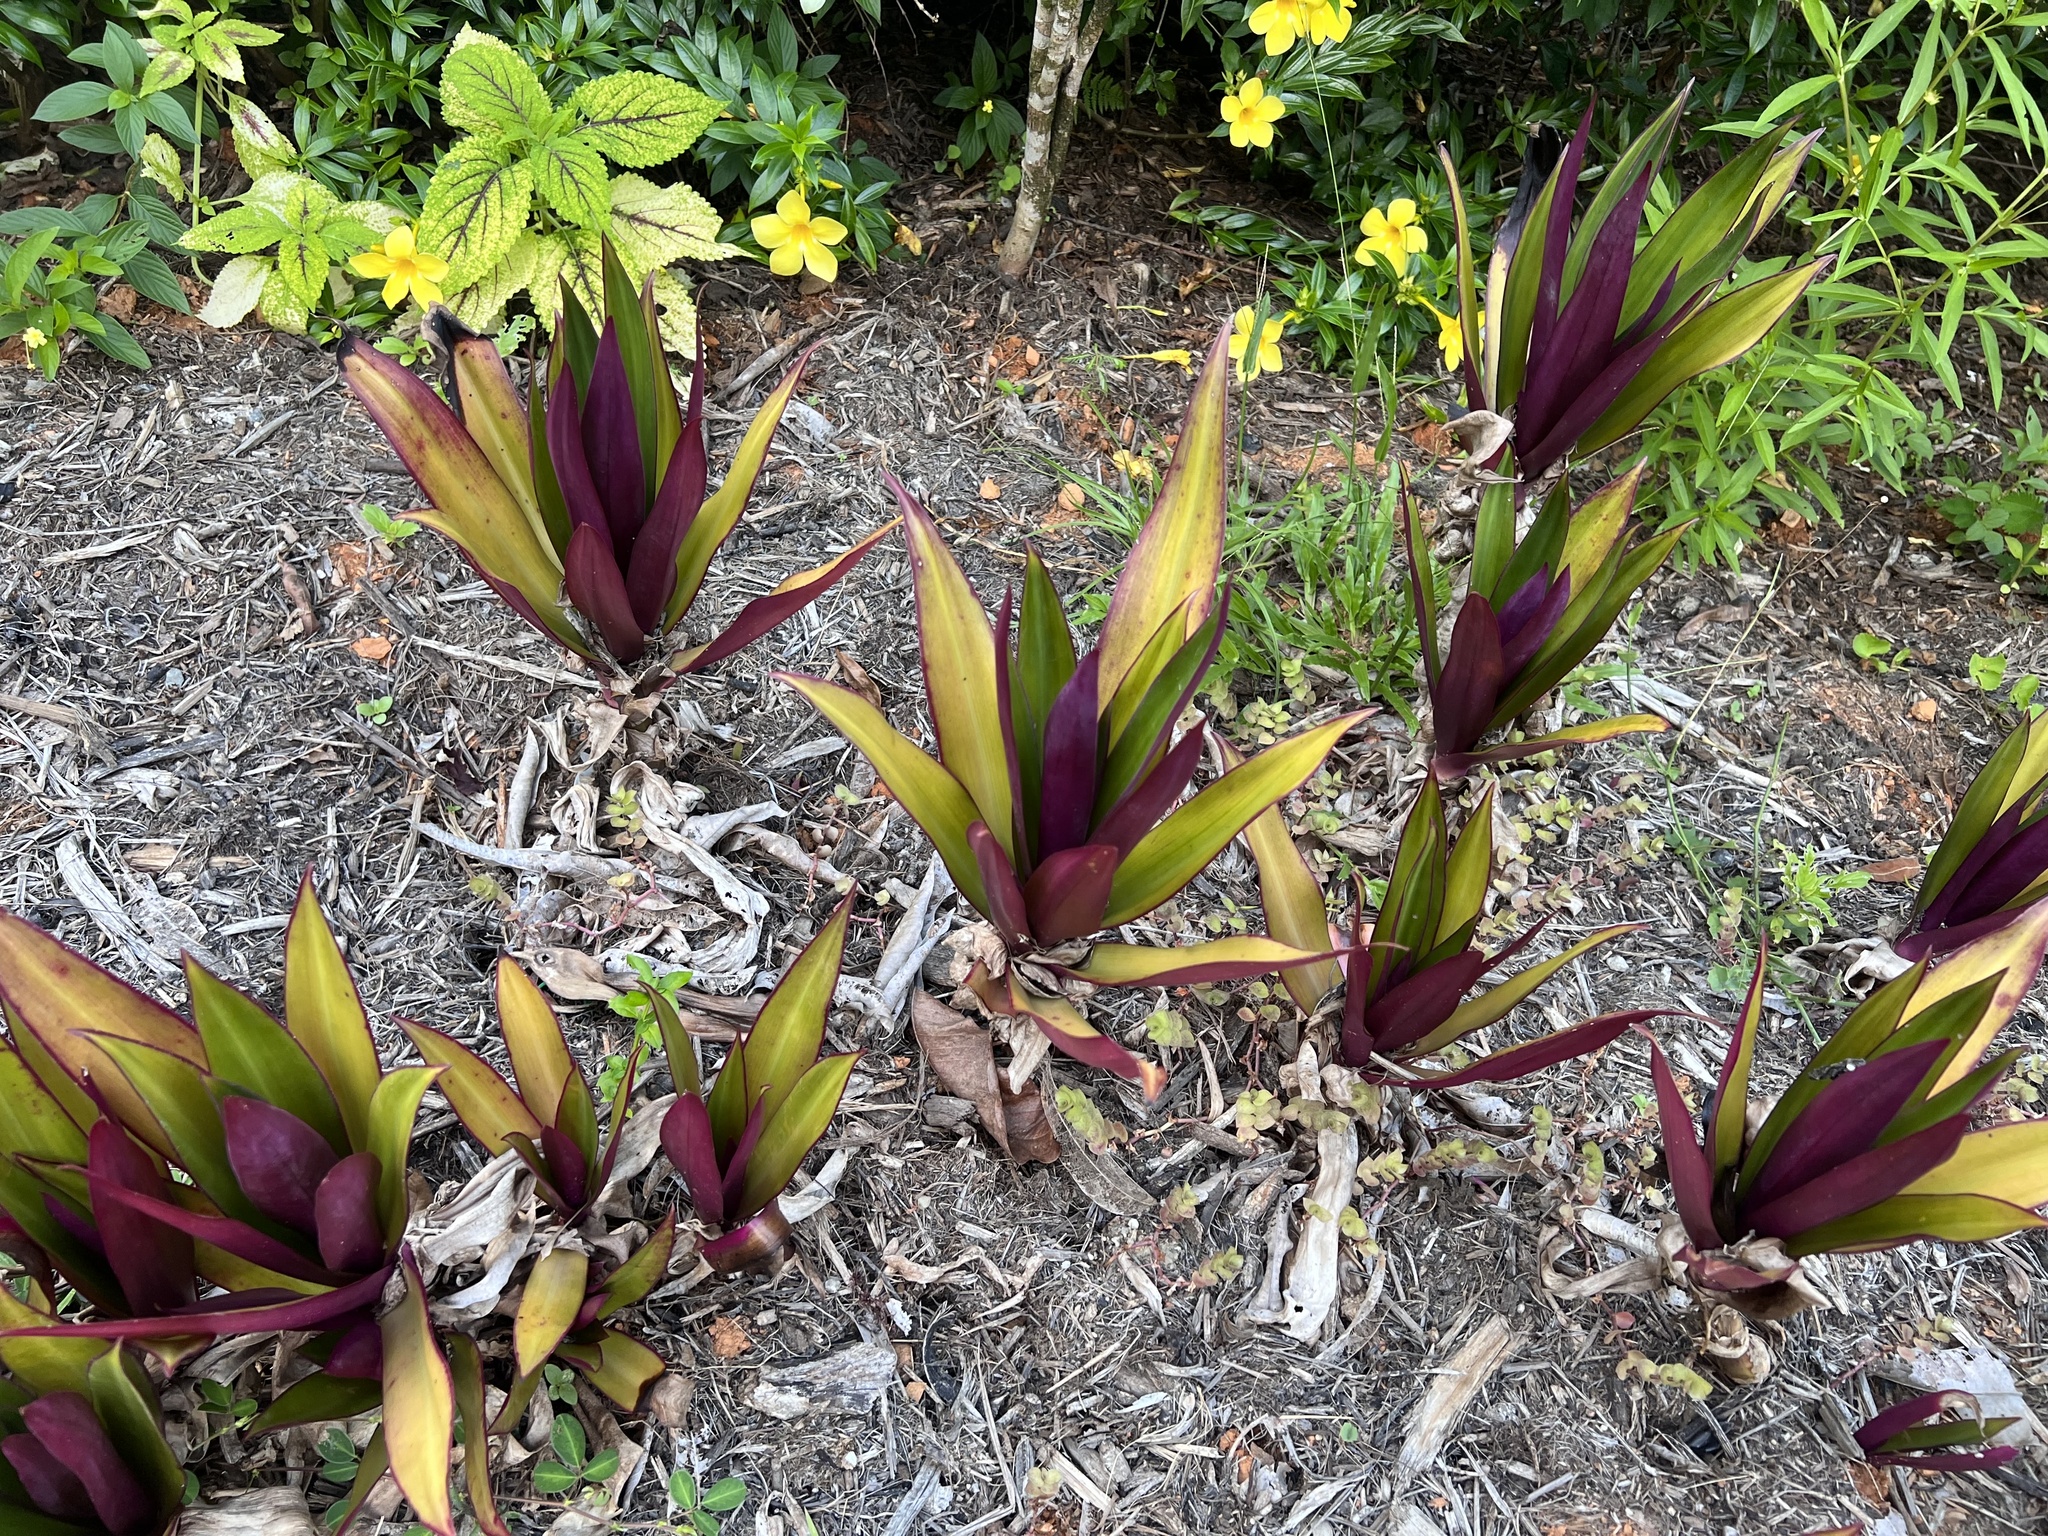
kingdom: Plantae
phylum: Tracheophyta
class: Liliopsida
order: Commelinales
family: Commelinaceae
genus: Tradescantia
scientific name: Tradescantia spathacea
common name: Boatlily
